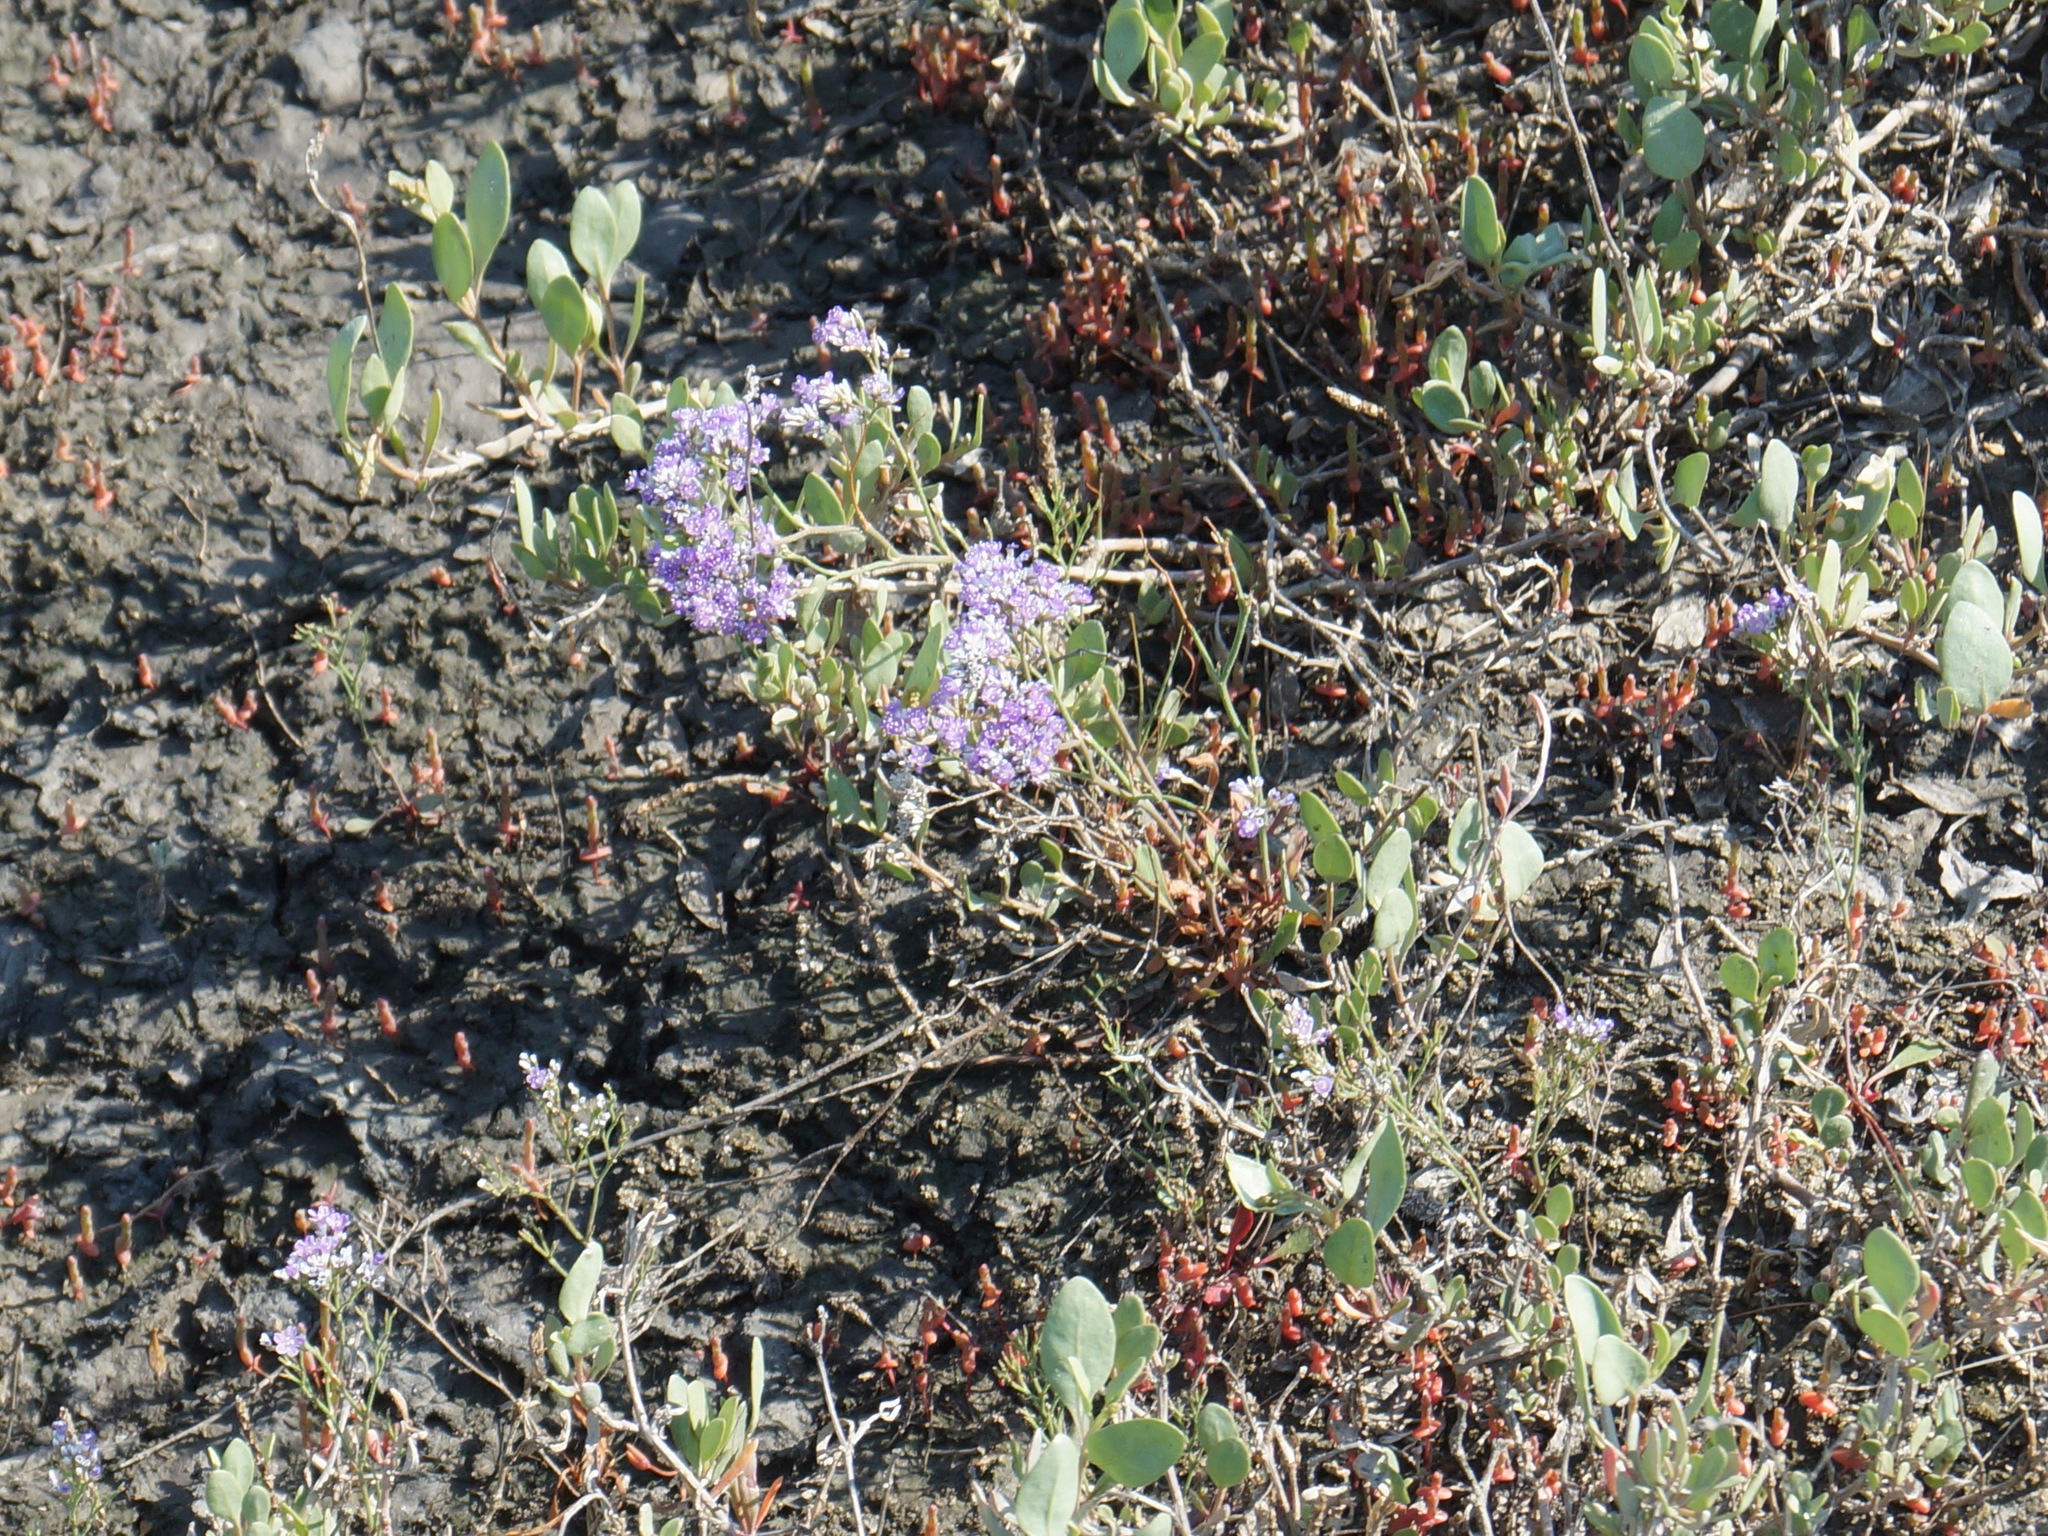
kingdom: Plantae
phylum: Tracheophyta
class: Magnoliopsida
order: Caryophyllales
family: Plumbaginaceae
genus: Limonium
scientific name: Limonium gmelini
